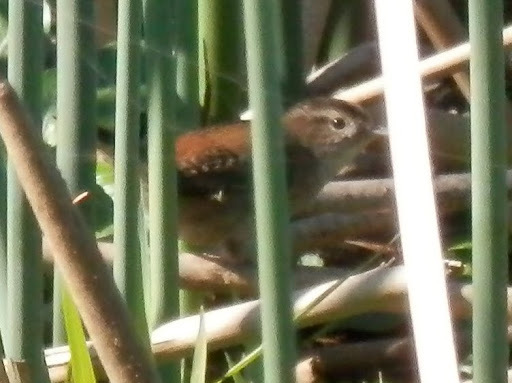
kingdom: Animalia
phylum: Chordata
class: Aves
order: Passeriformes
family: Troglodytidae
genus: Cistothorus
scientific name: Cistothorus palustris
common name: Marsh wren
